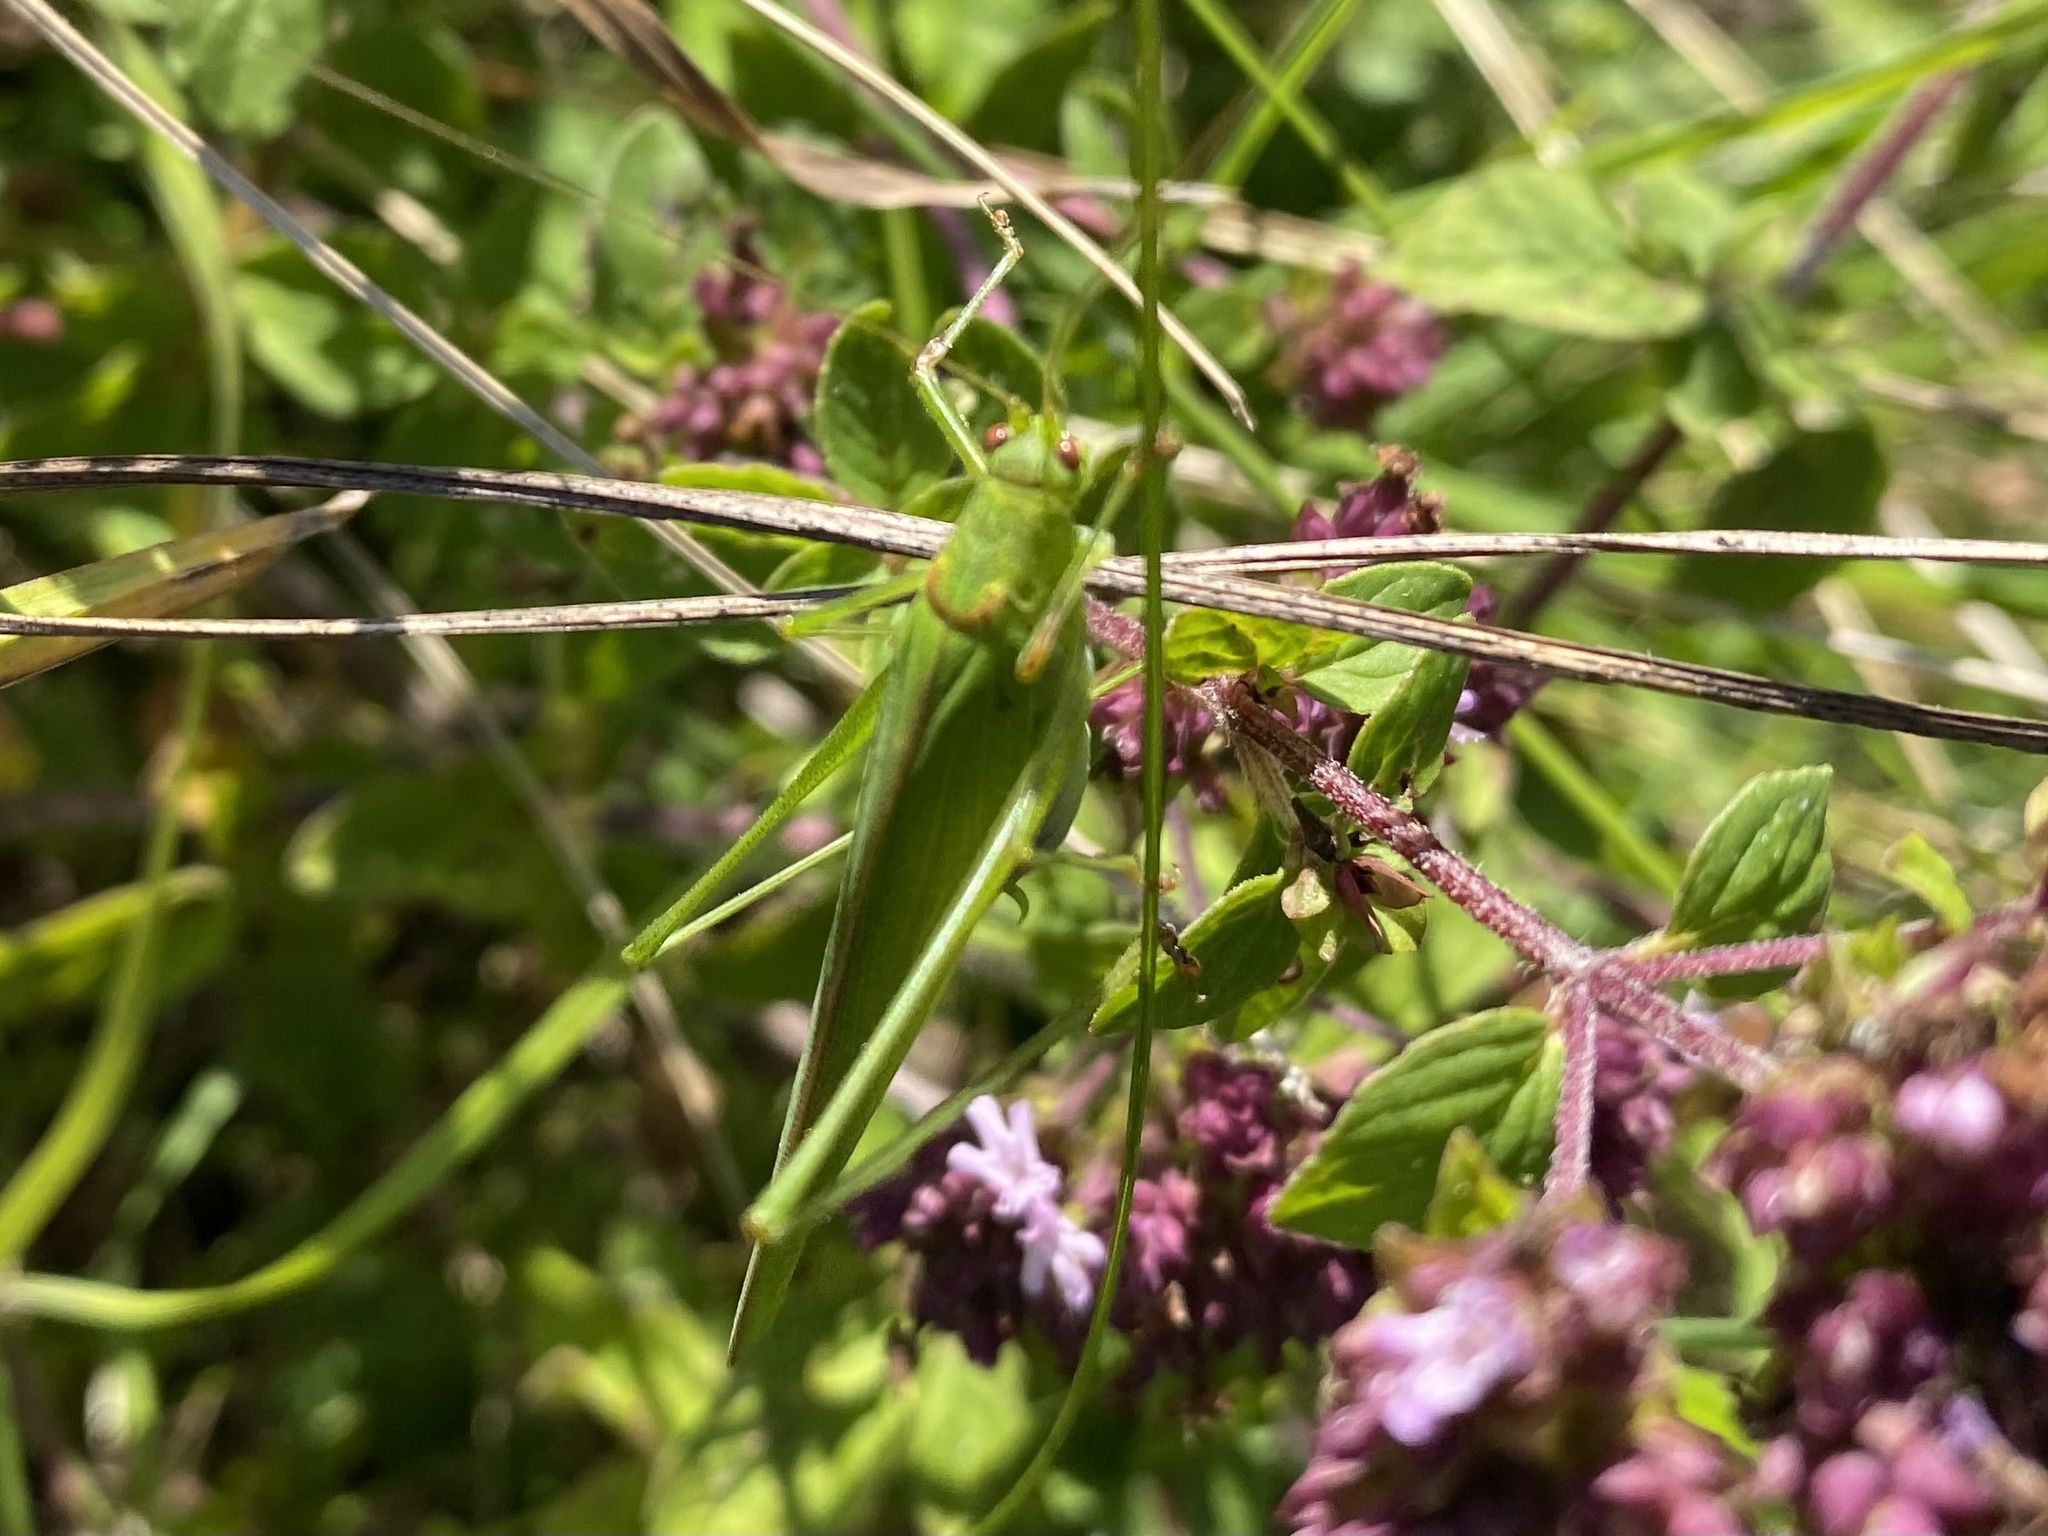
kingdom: Animalia
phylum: Arthropoda
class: Insecta
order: Orthoptera
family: Tettigoniidae
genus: Phaneroptera
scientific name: Phaneroptera falcata
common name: Sickle-bearing bush-cricket
